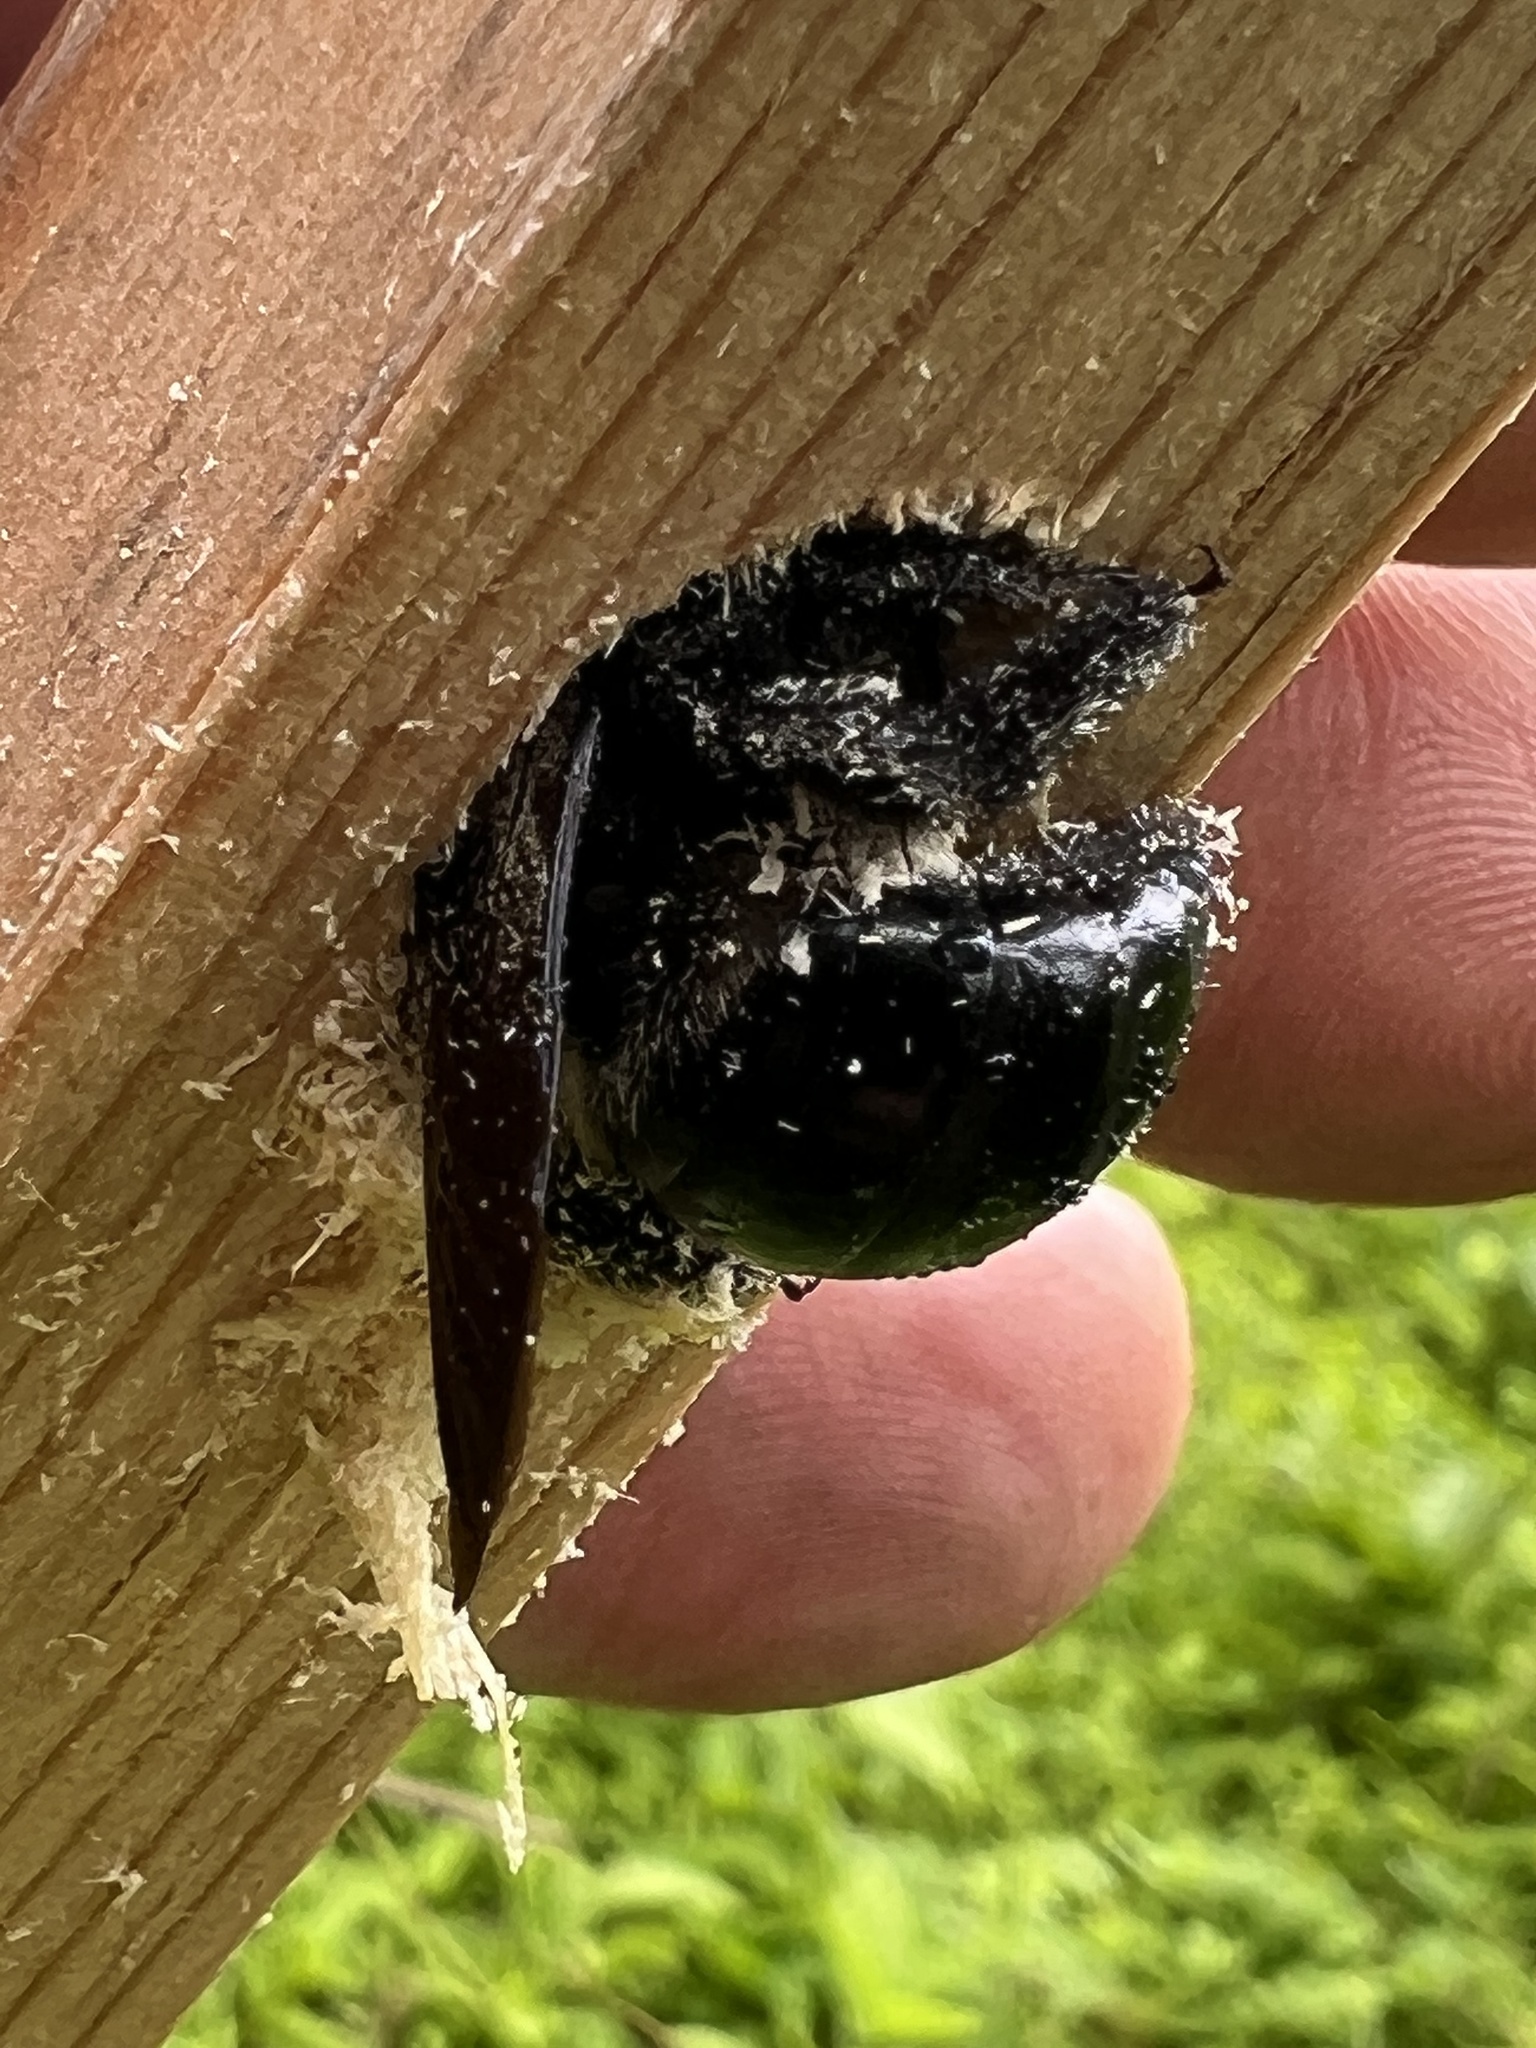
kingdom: Animalia
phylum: Arthropoda
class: Insecta
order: Hymenoptera
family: Apidae
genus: Xylocopa
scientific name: Xylocopa virginica
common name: Carpenter bee
